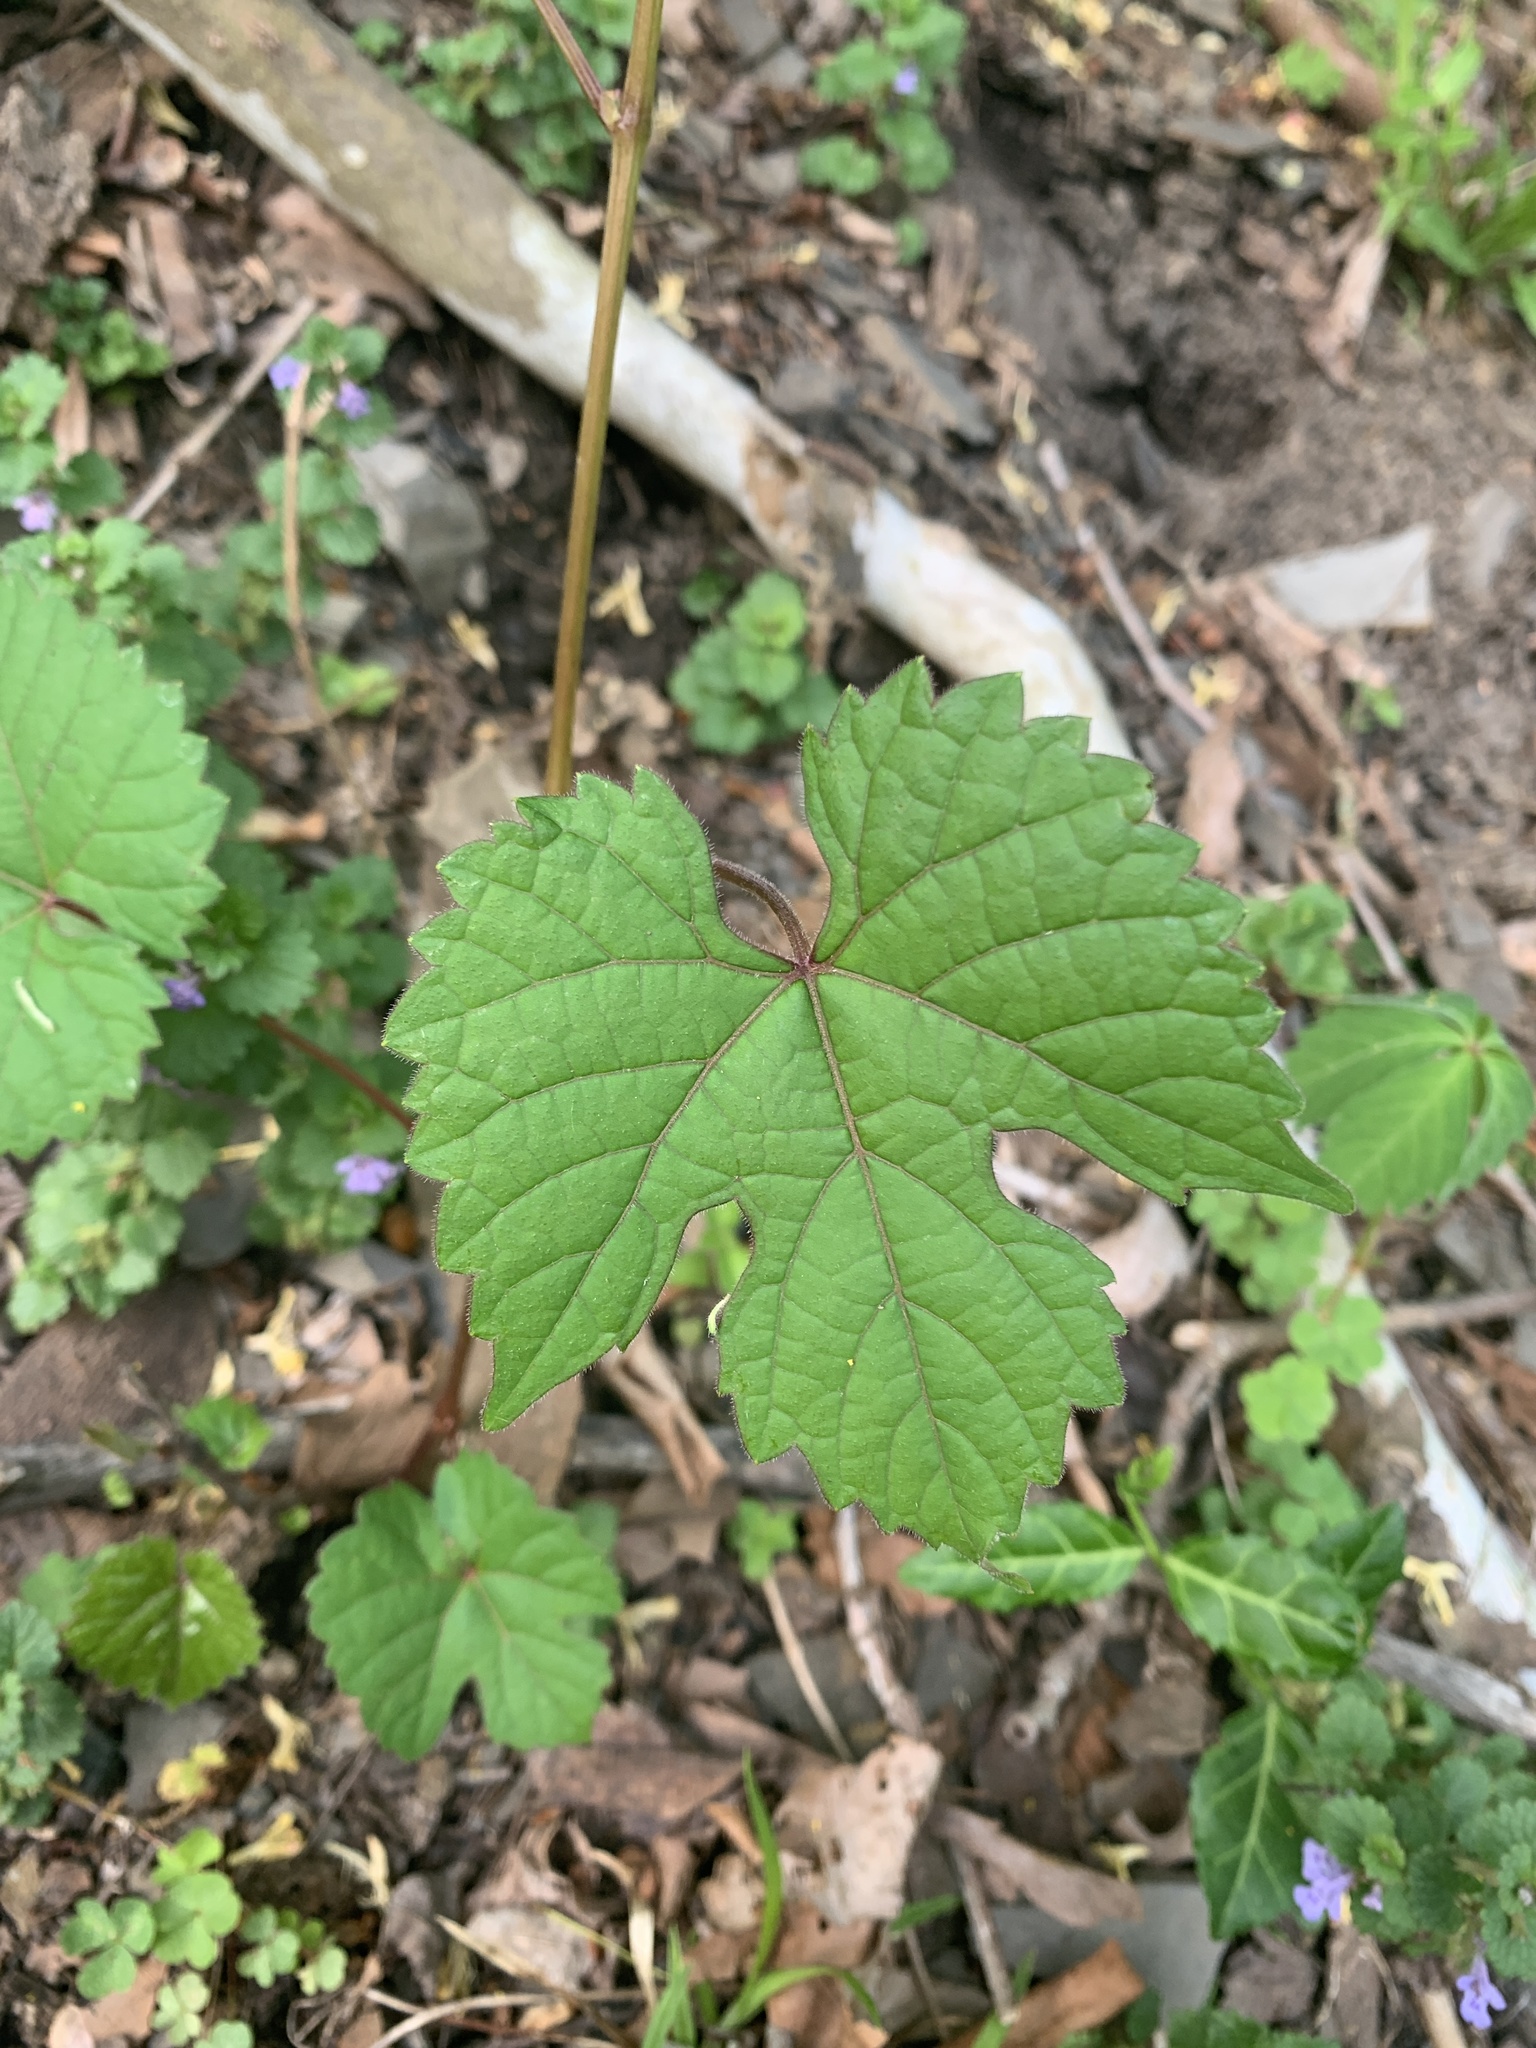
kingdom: Plantae
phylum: Tracheophyta
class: Magnoliopsida
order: Vitales
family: Vitaceae
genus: Ampelopsis
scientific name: Ampelopsis glandulosa
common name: Amur peppervine
